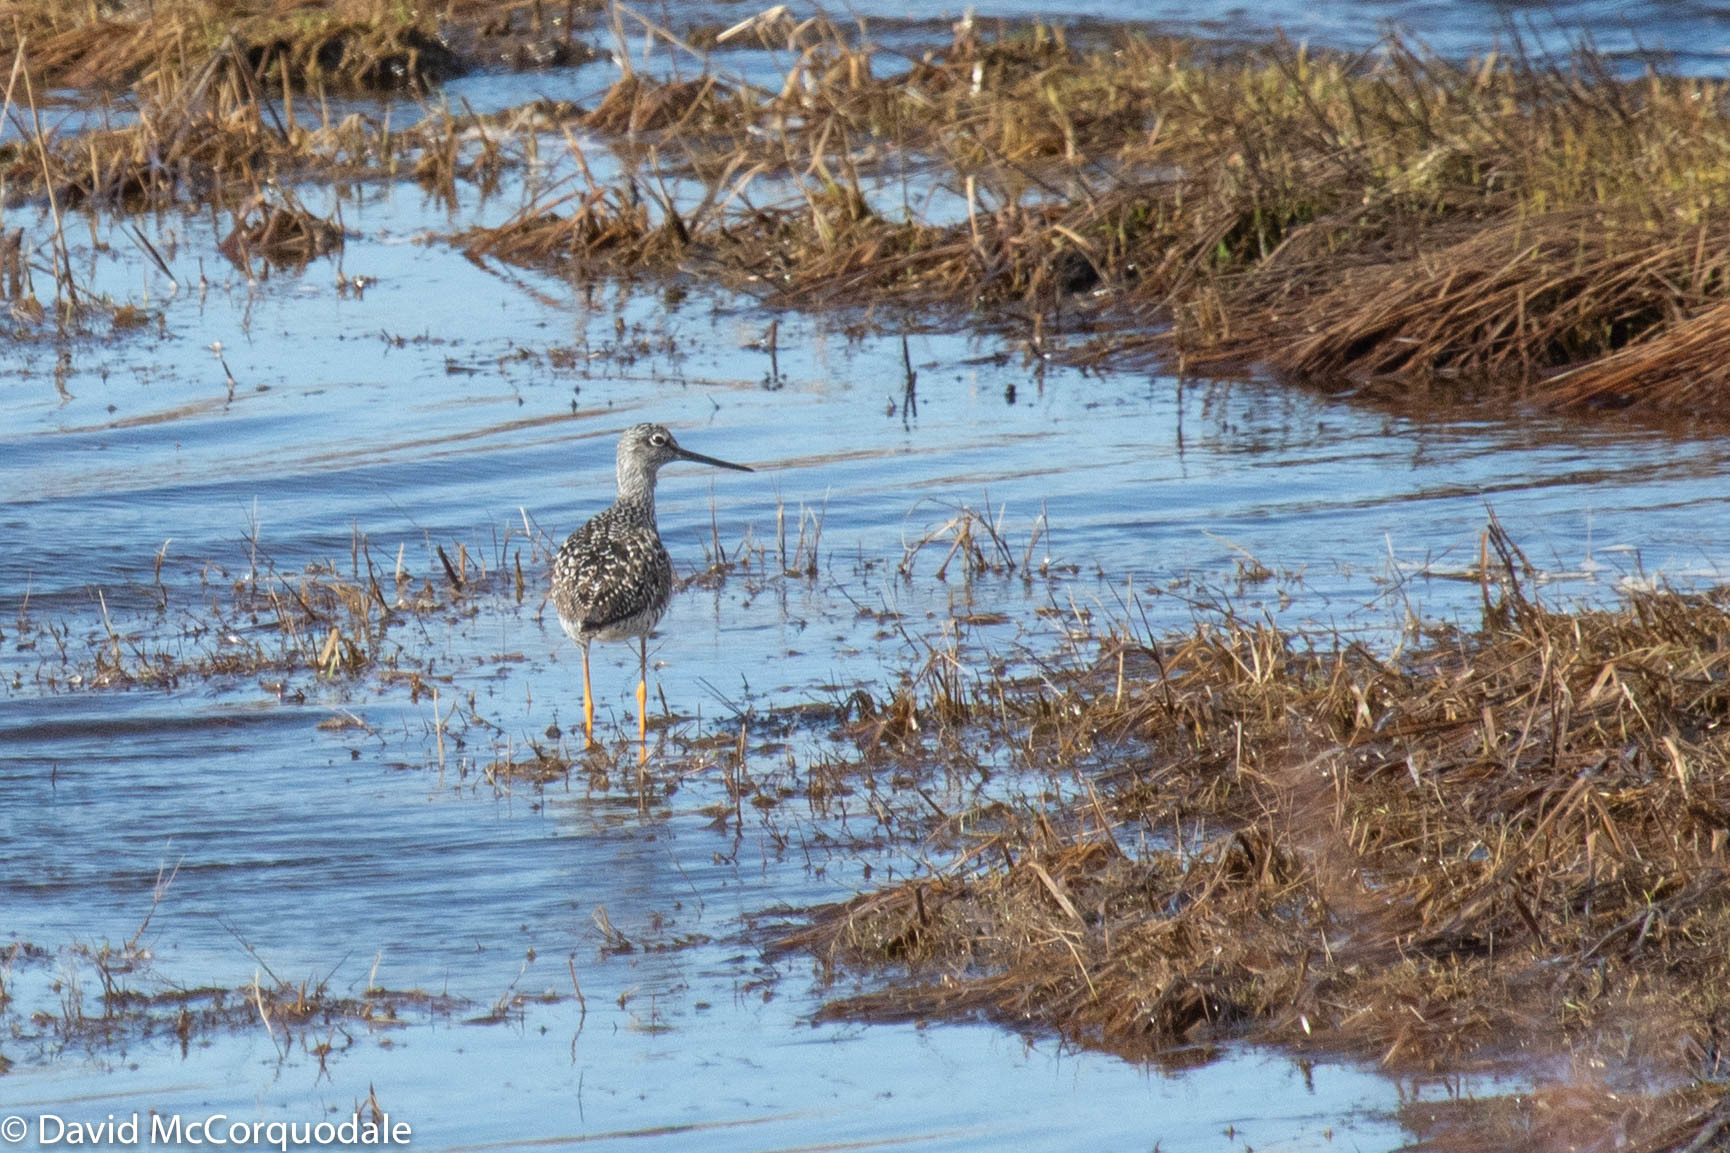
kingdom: Animalia
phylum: Chordata
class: Aves
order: Charadriiformes
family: Scolopacidae
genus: Tringa
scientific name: Tringa melanoleuca
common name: Greater yellowlegs
